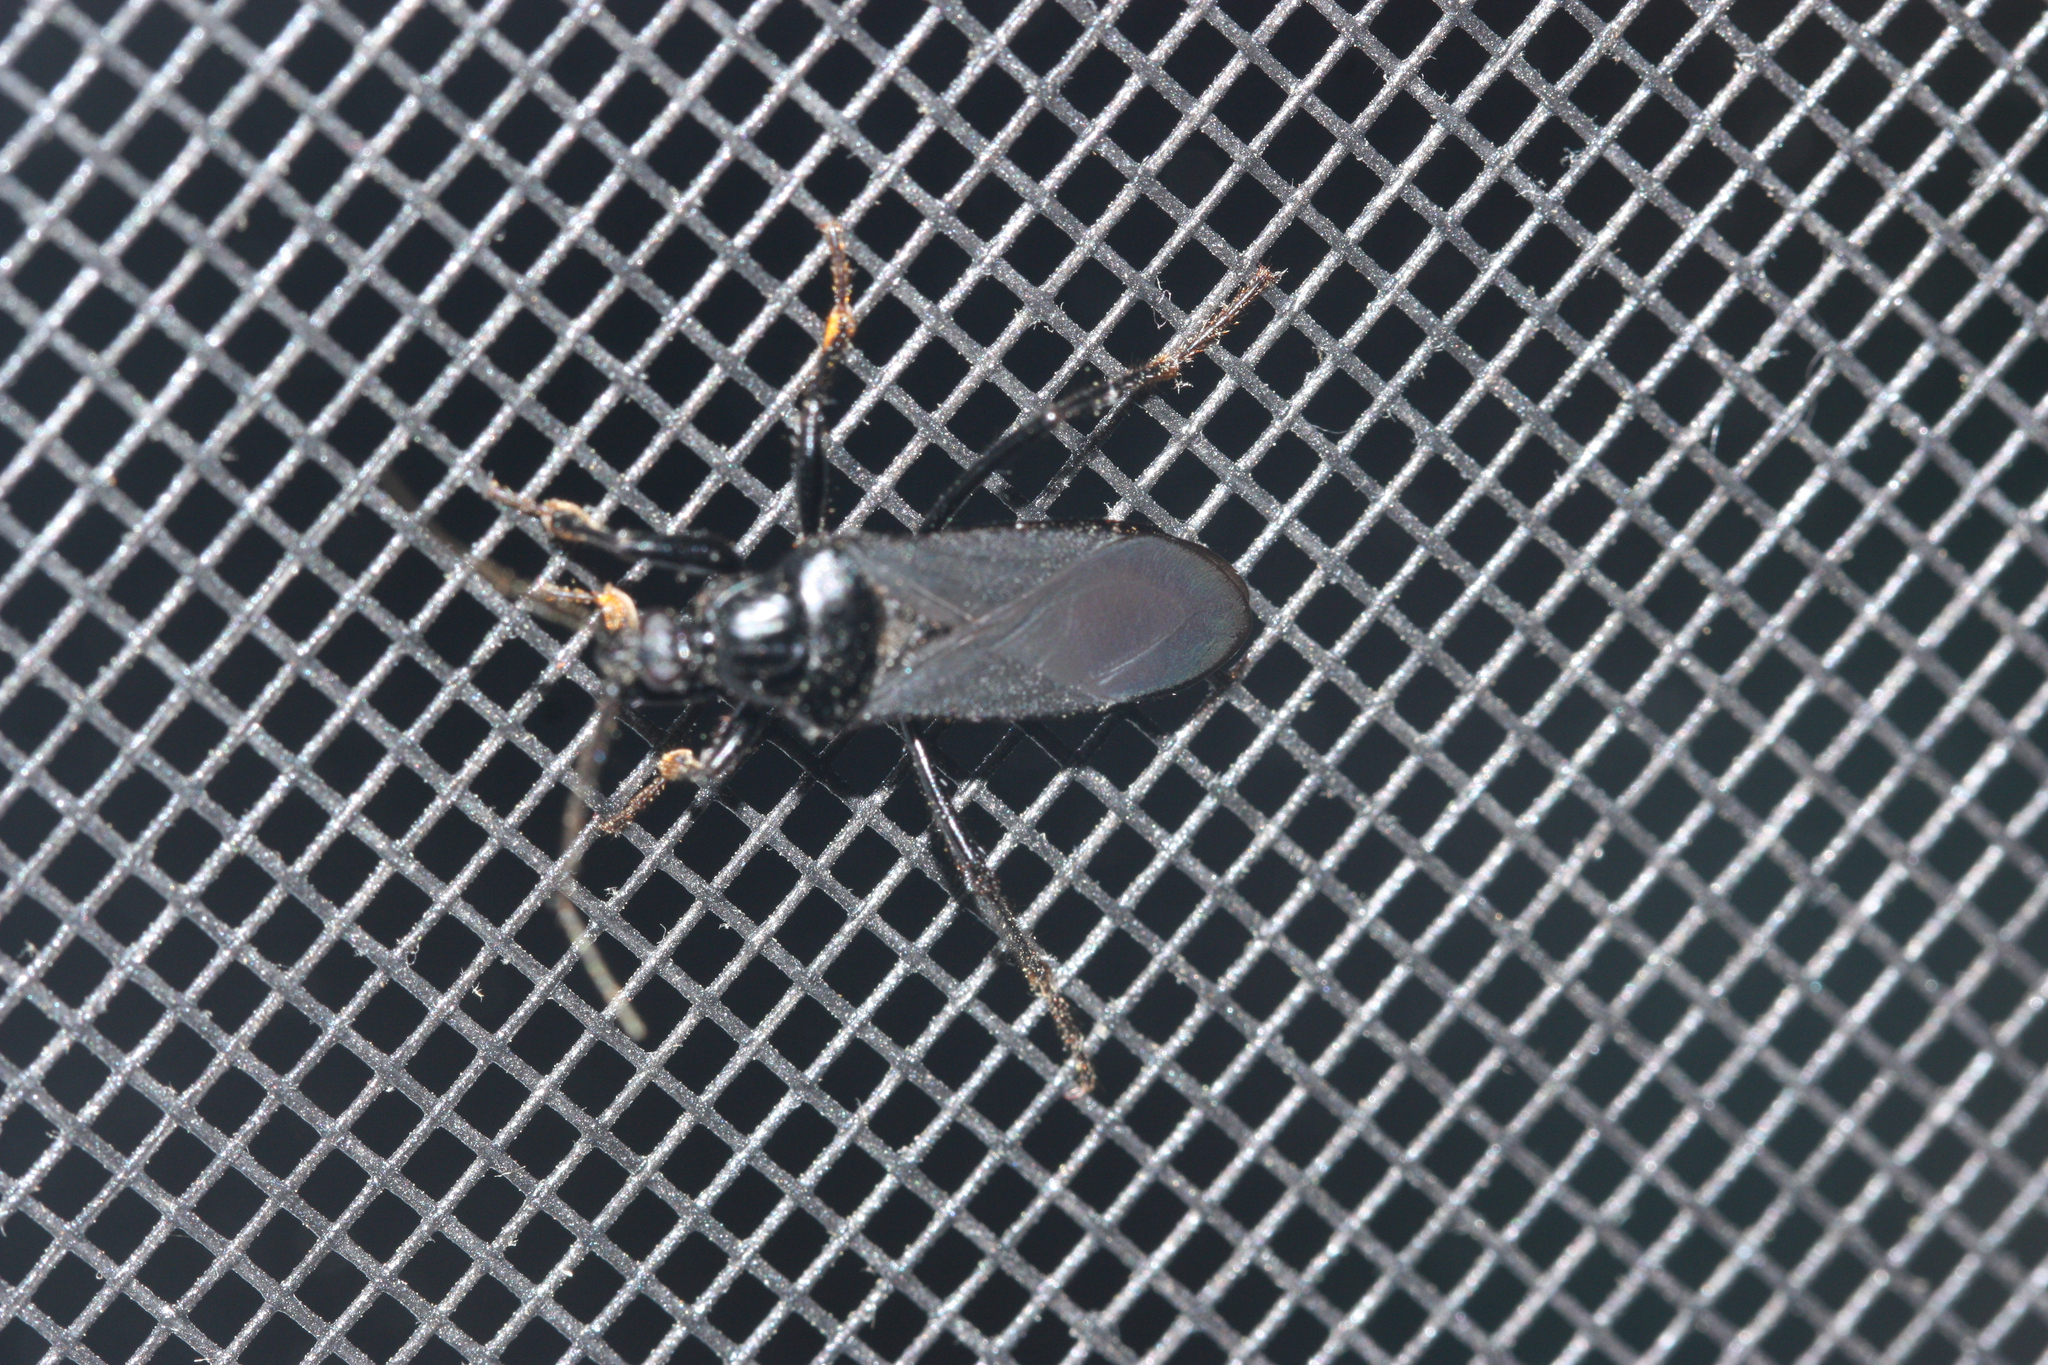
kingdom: Animalia
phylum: Arthropoda
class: Insecta
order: Hemiptera
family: Reduviidae
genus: Melanolestes
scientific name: Melanolestes picipes
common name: Assassin bug
